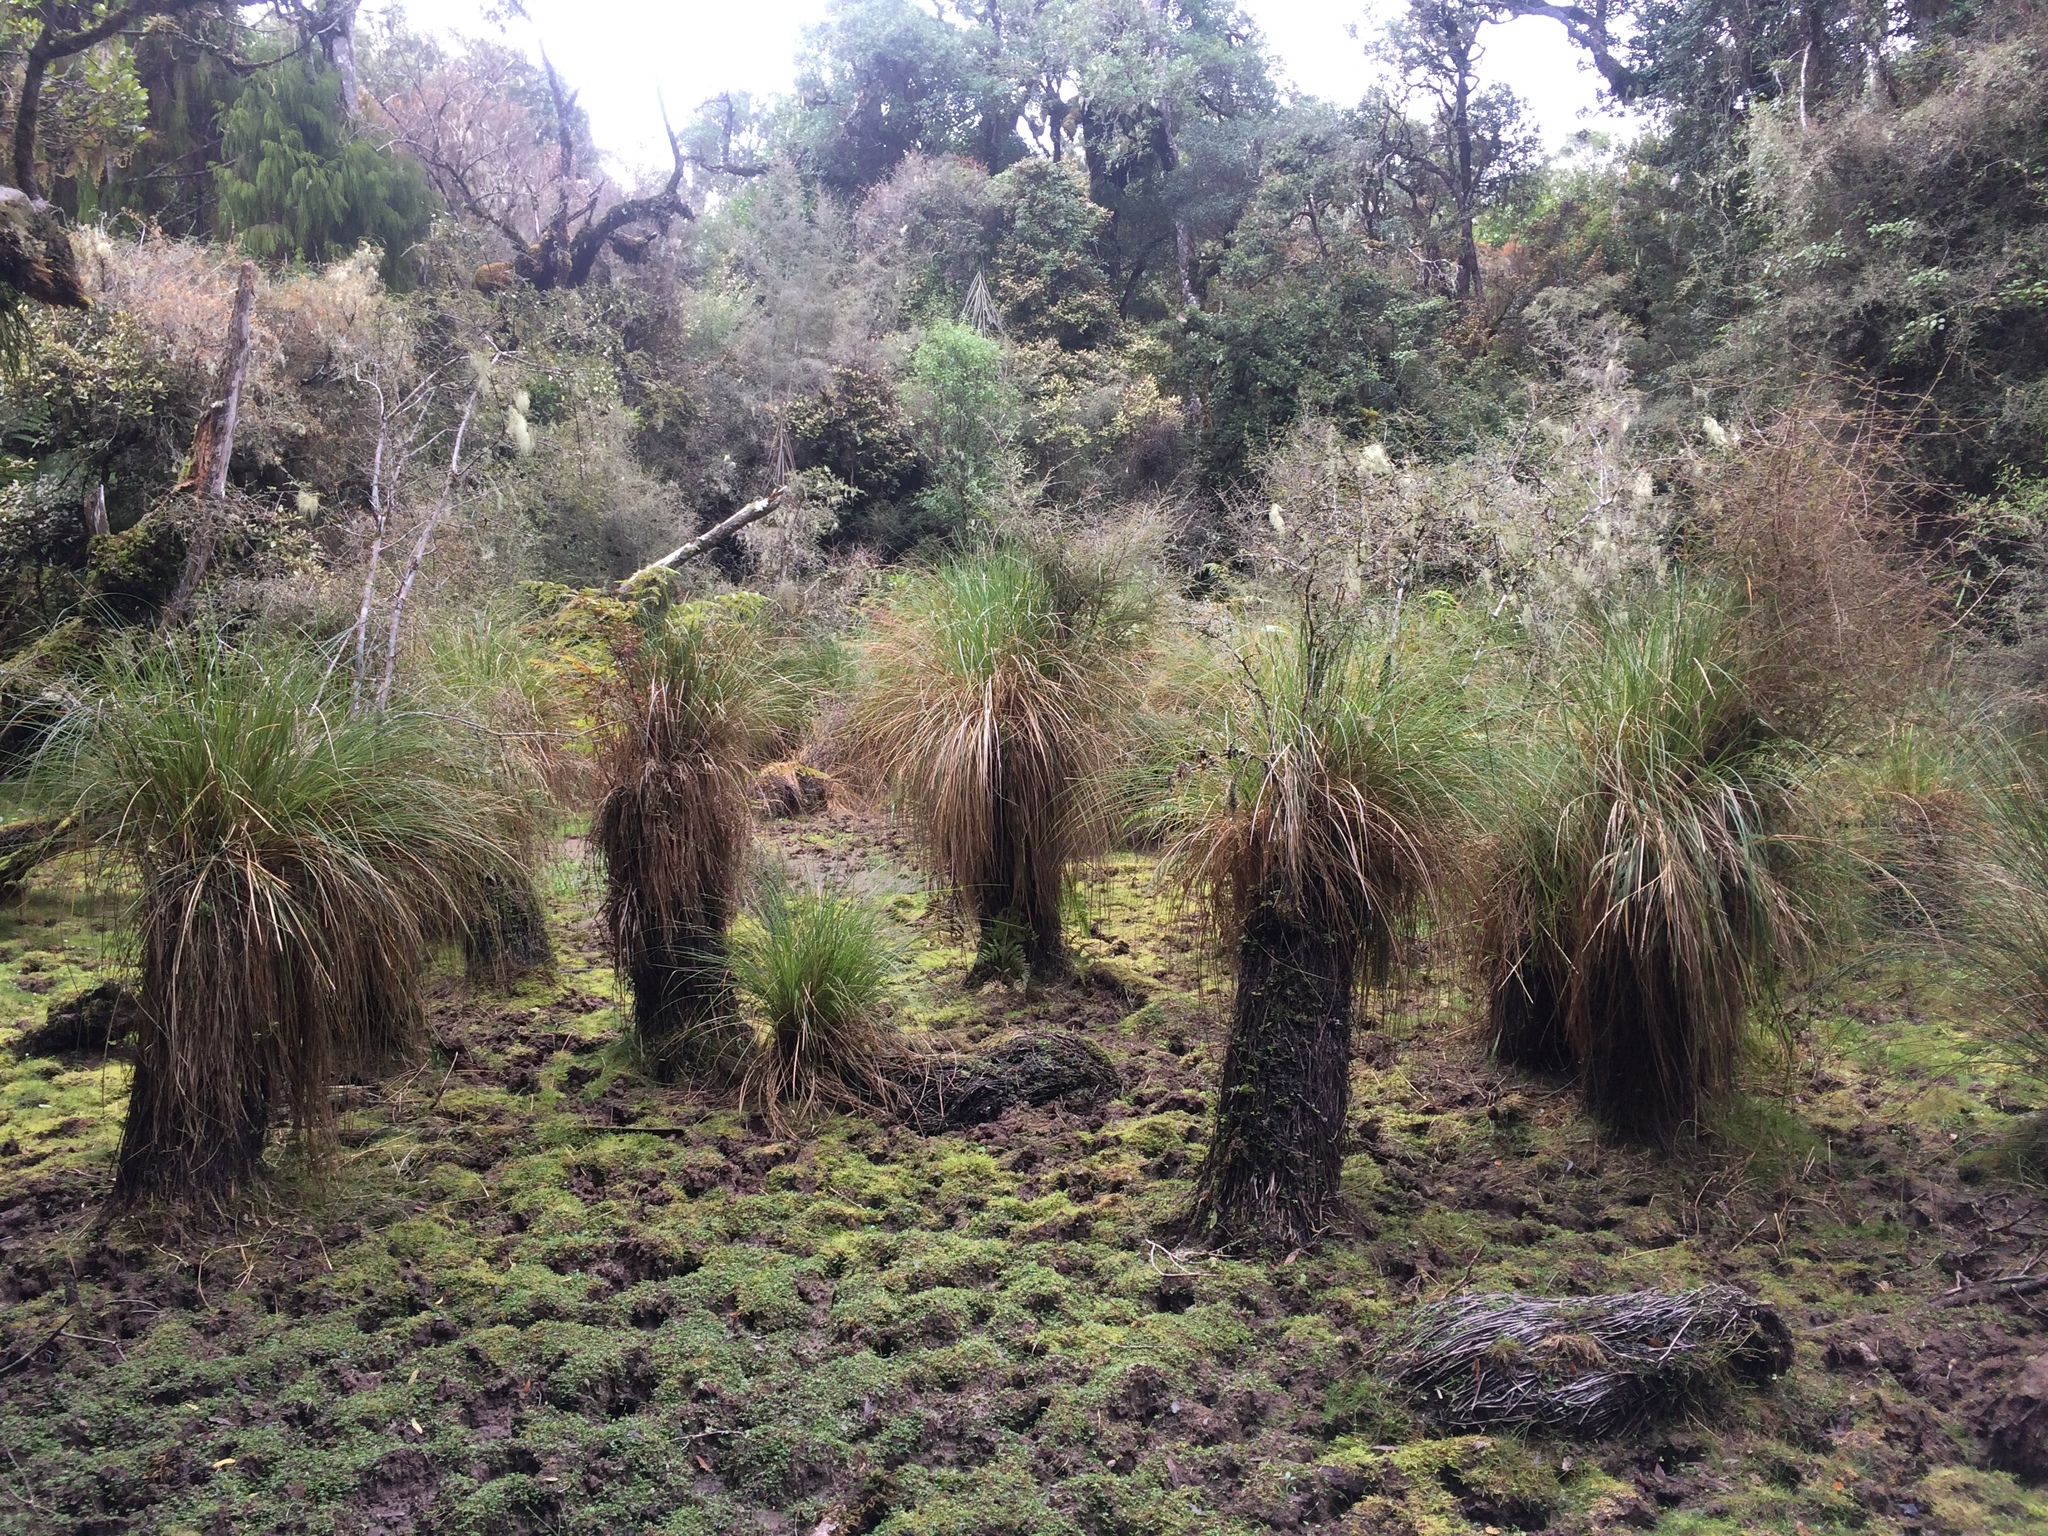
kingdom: Plantae
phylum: Tracheophyta
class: Liliopsida
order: Poales
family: Cyperaceae
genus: Carex
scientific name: Carex secta
